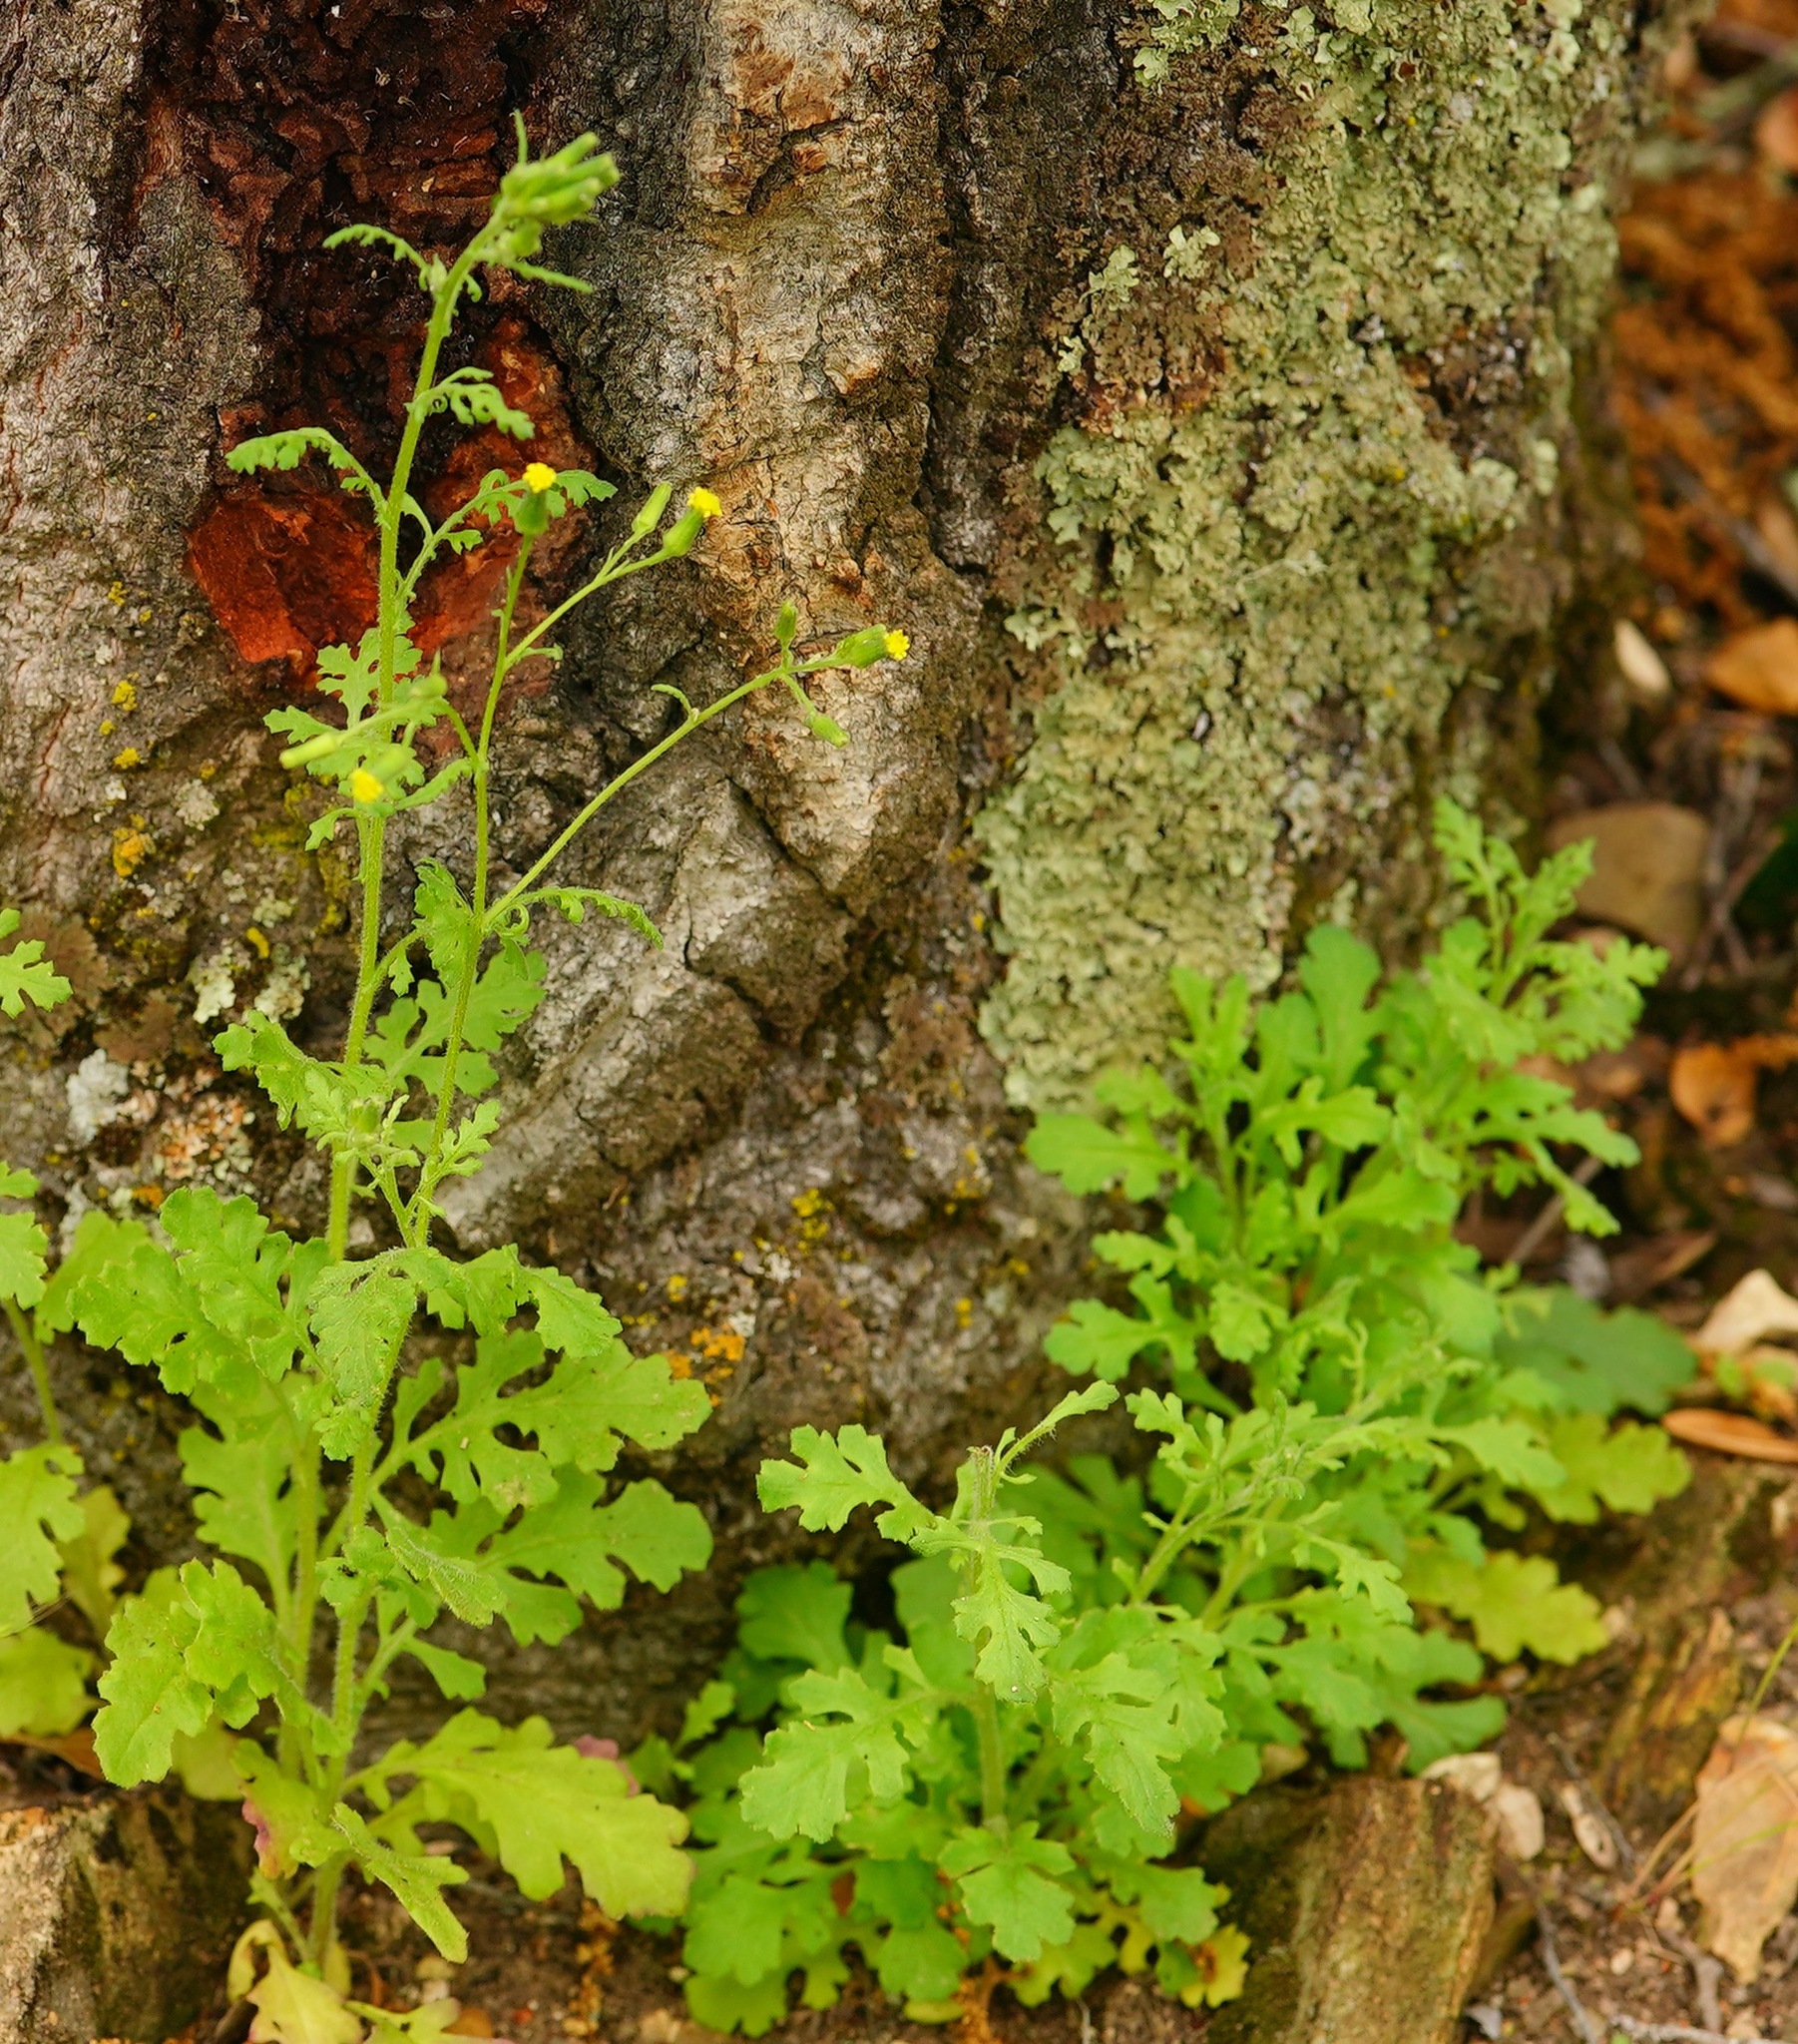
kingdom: Plantae
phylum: Tracheophyta
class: Magnoliopsida
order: Asterales
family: Asteraceae
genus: Senecio
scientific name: Senecio vulgaris
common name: Old-man-in-the-spring
